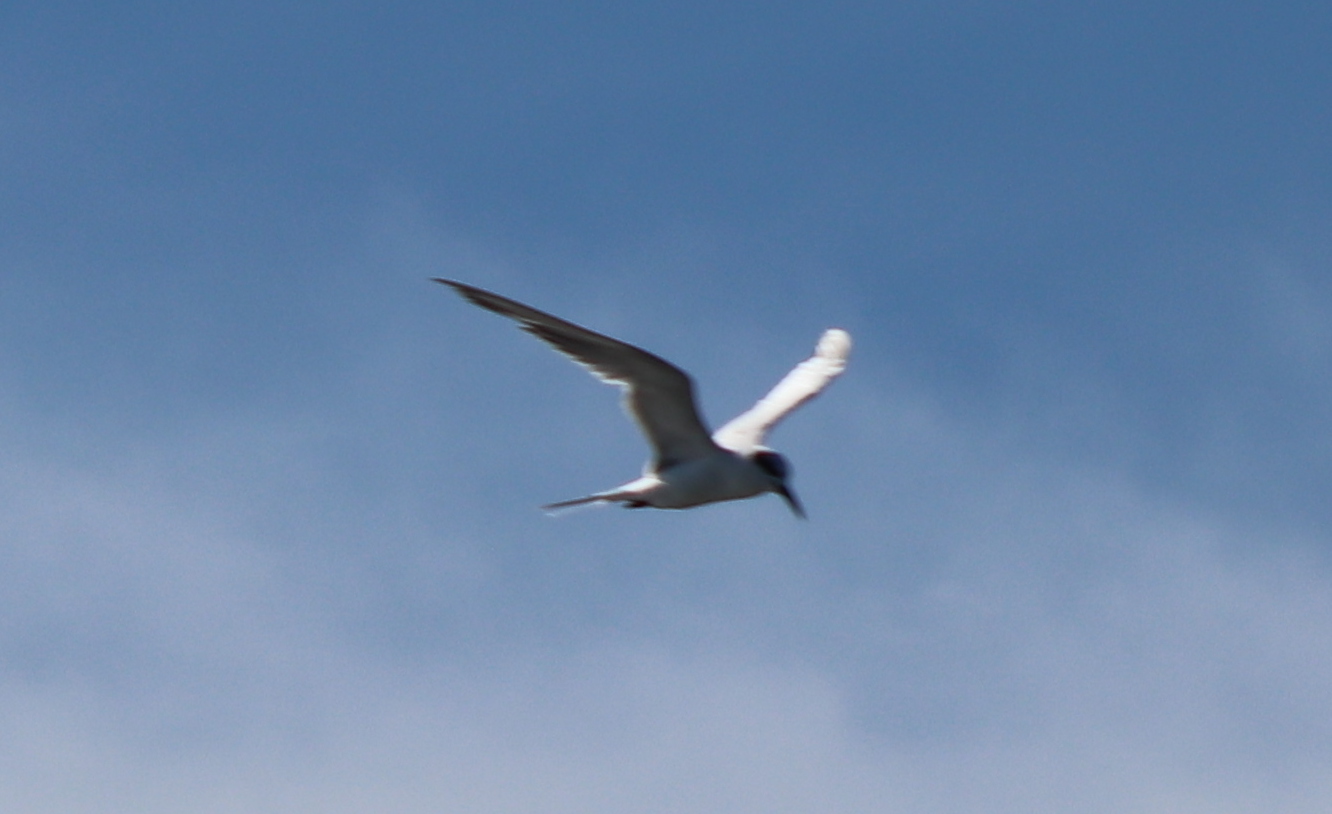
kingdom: Animalia
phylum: Chordata
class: Aves
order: Charadriiformes
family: Laridae
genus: Sterna
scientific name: Sterna forsteri
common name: Forster's tern
